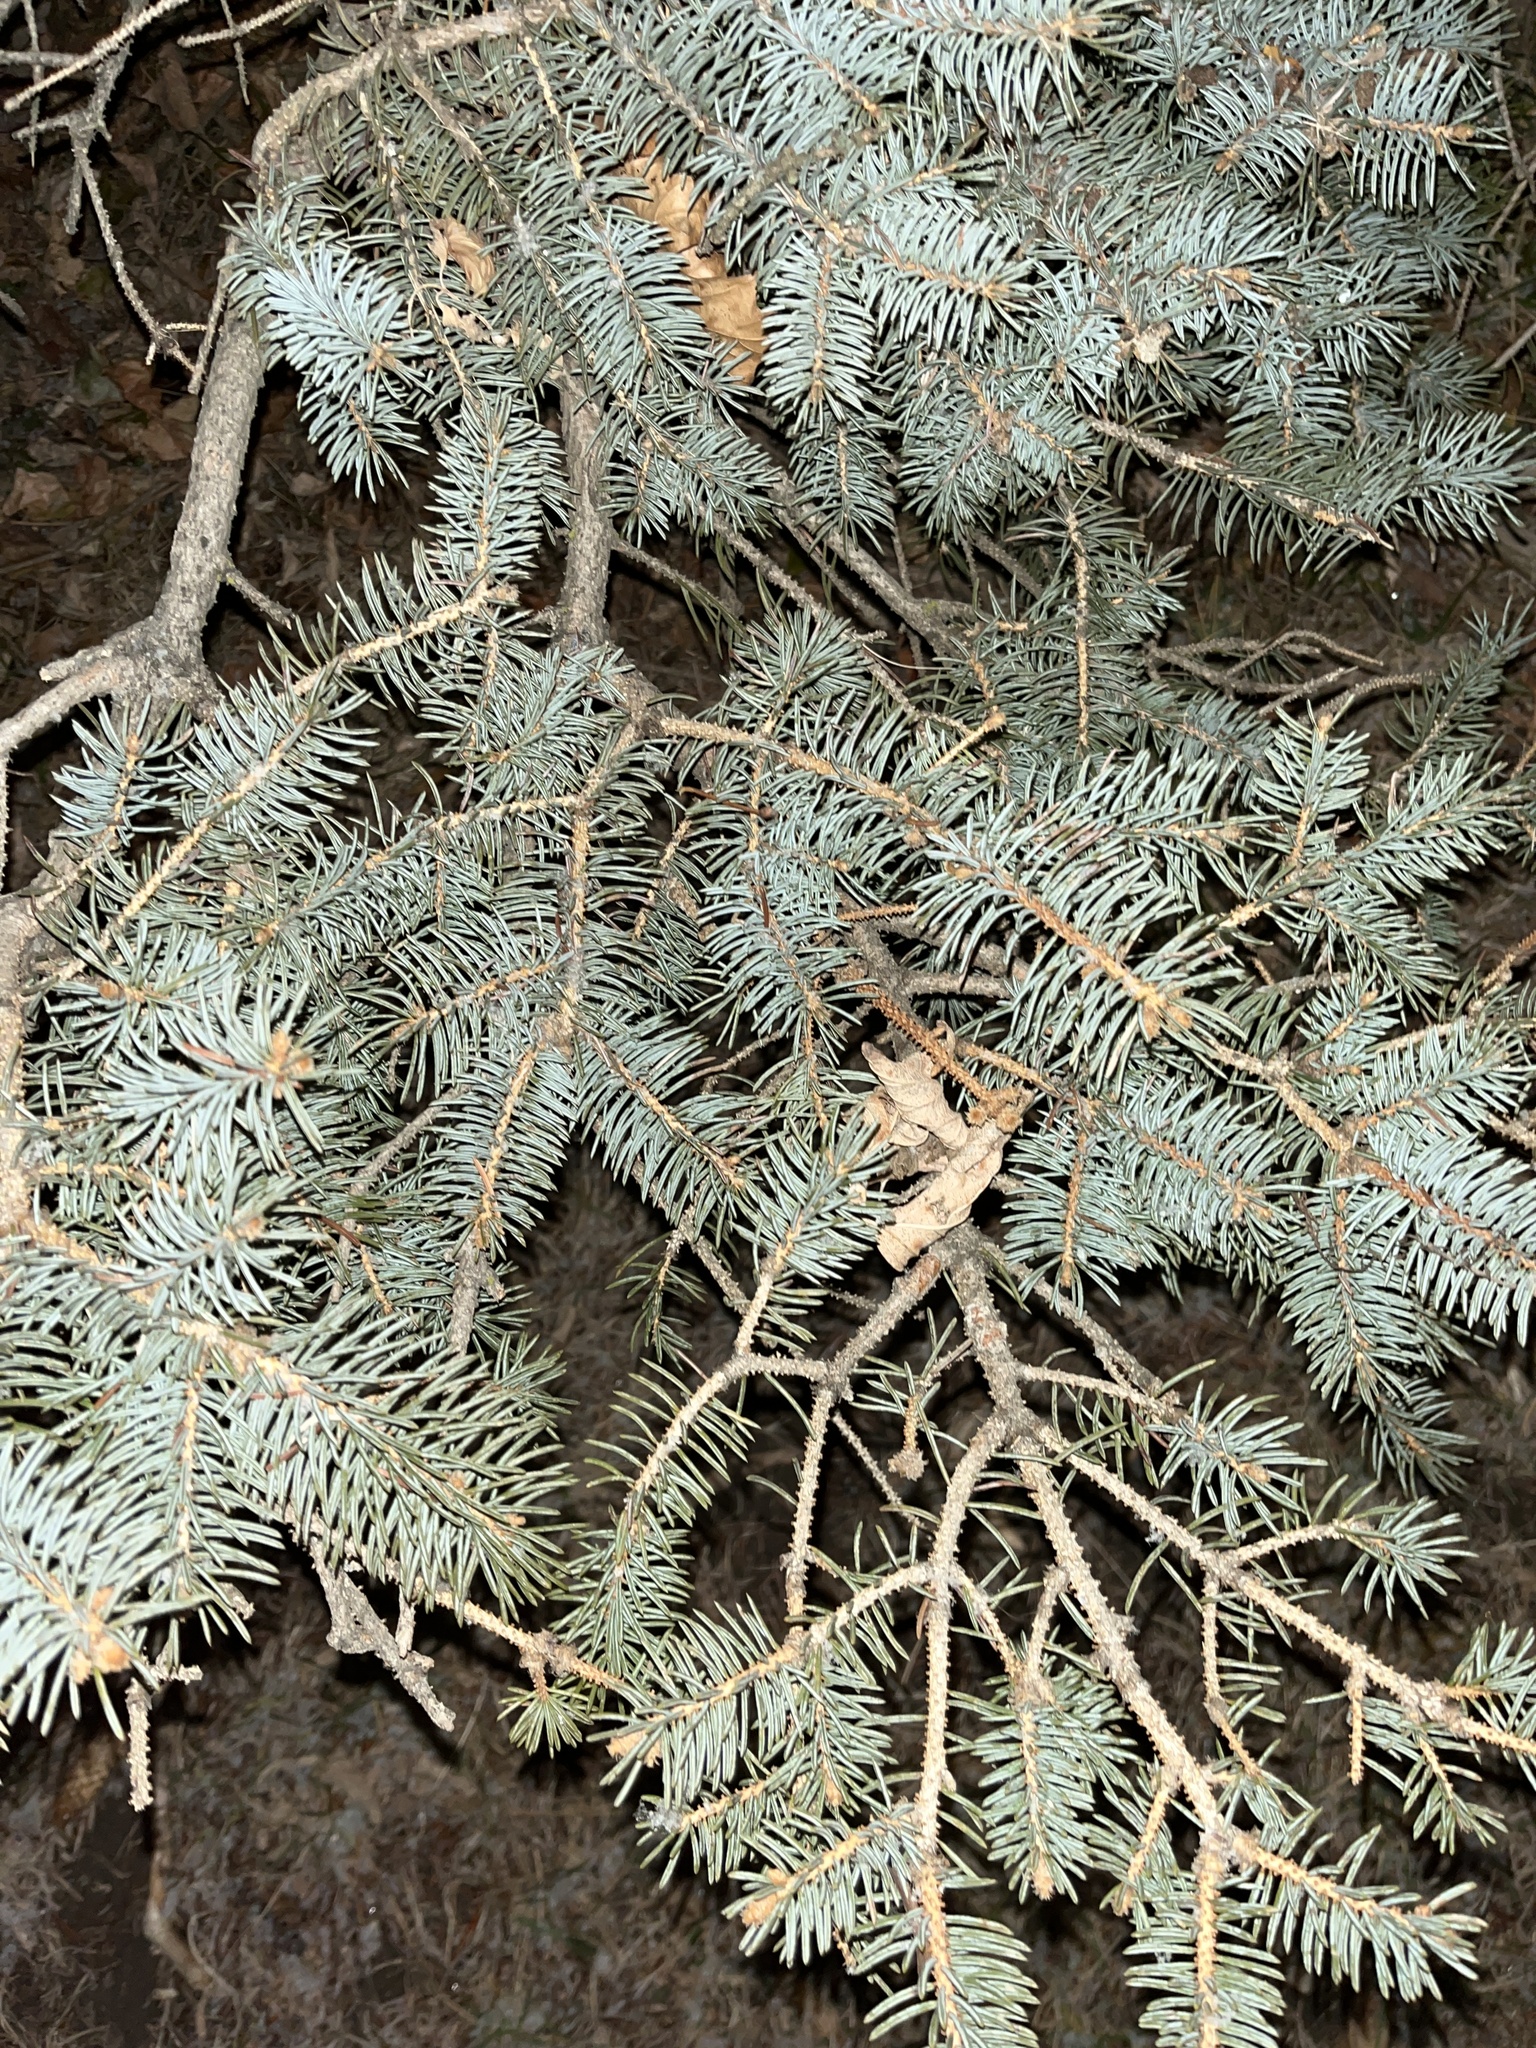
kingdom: Plantae
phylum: Tracheophyta
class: Pinopsida
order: Pinales
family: Pinaceae
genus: Picea
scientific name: Picea pungens
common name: Colorado spruce
